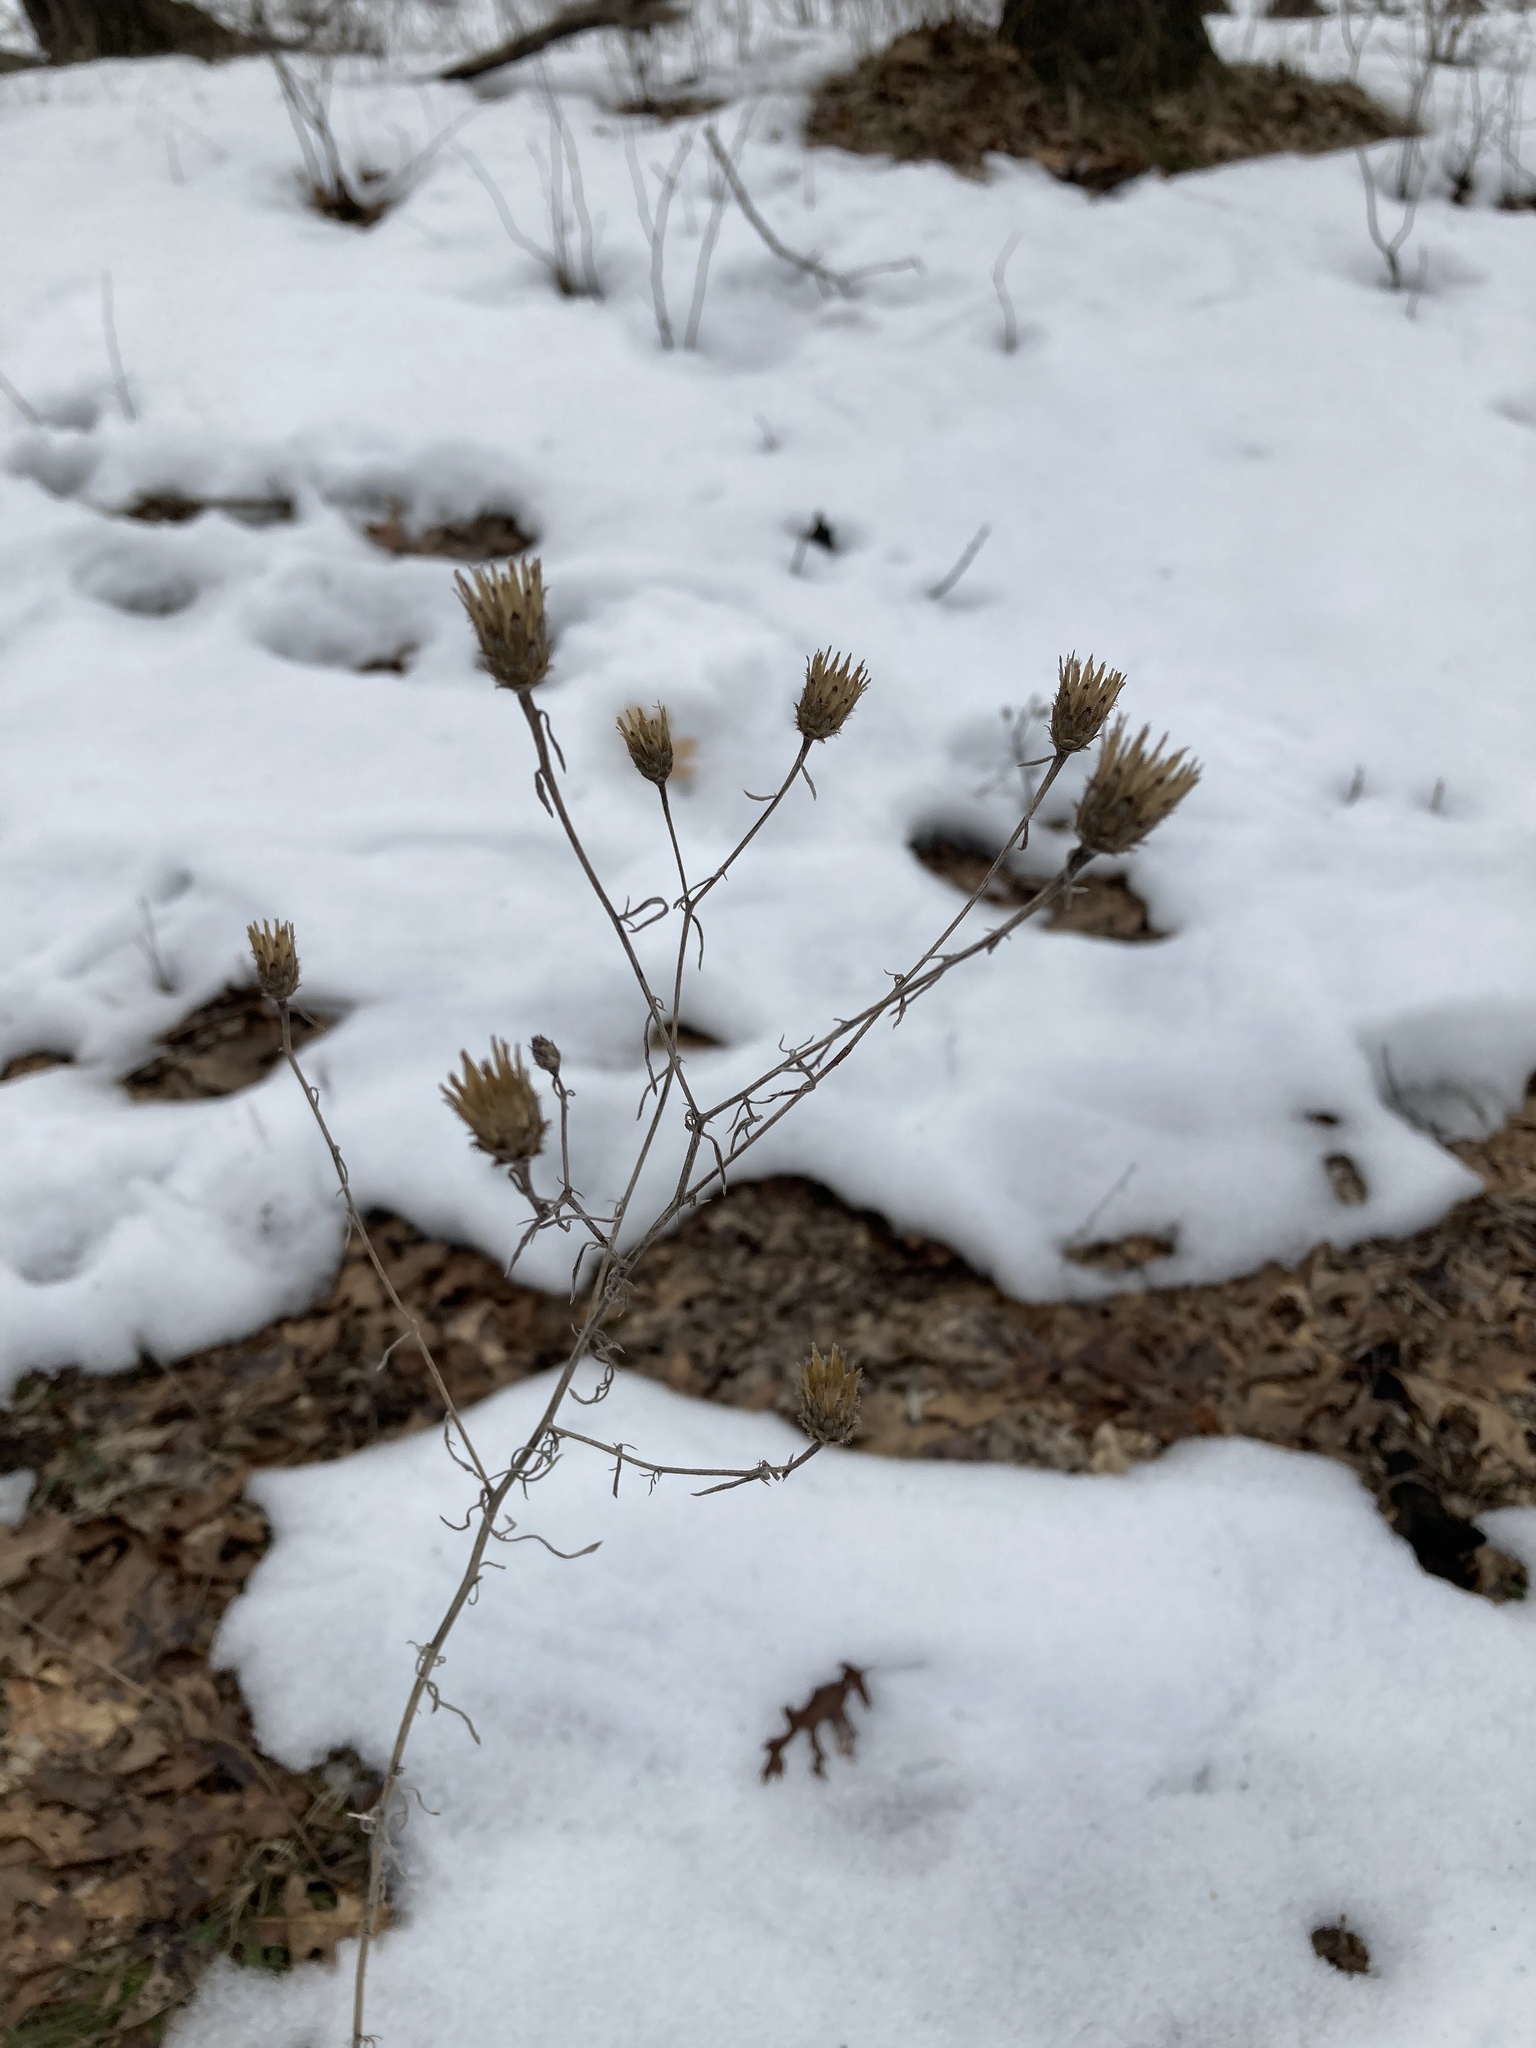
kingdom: Plantae
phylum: Tracheophyta
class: Magnoliopsida
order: Asterales
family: Asteraceae
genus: Centaurea
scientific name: Centaurea stoebe
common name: Spotted knapweed
